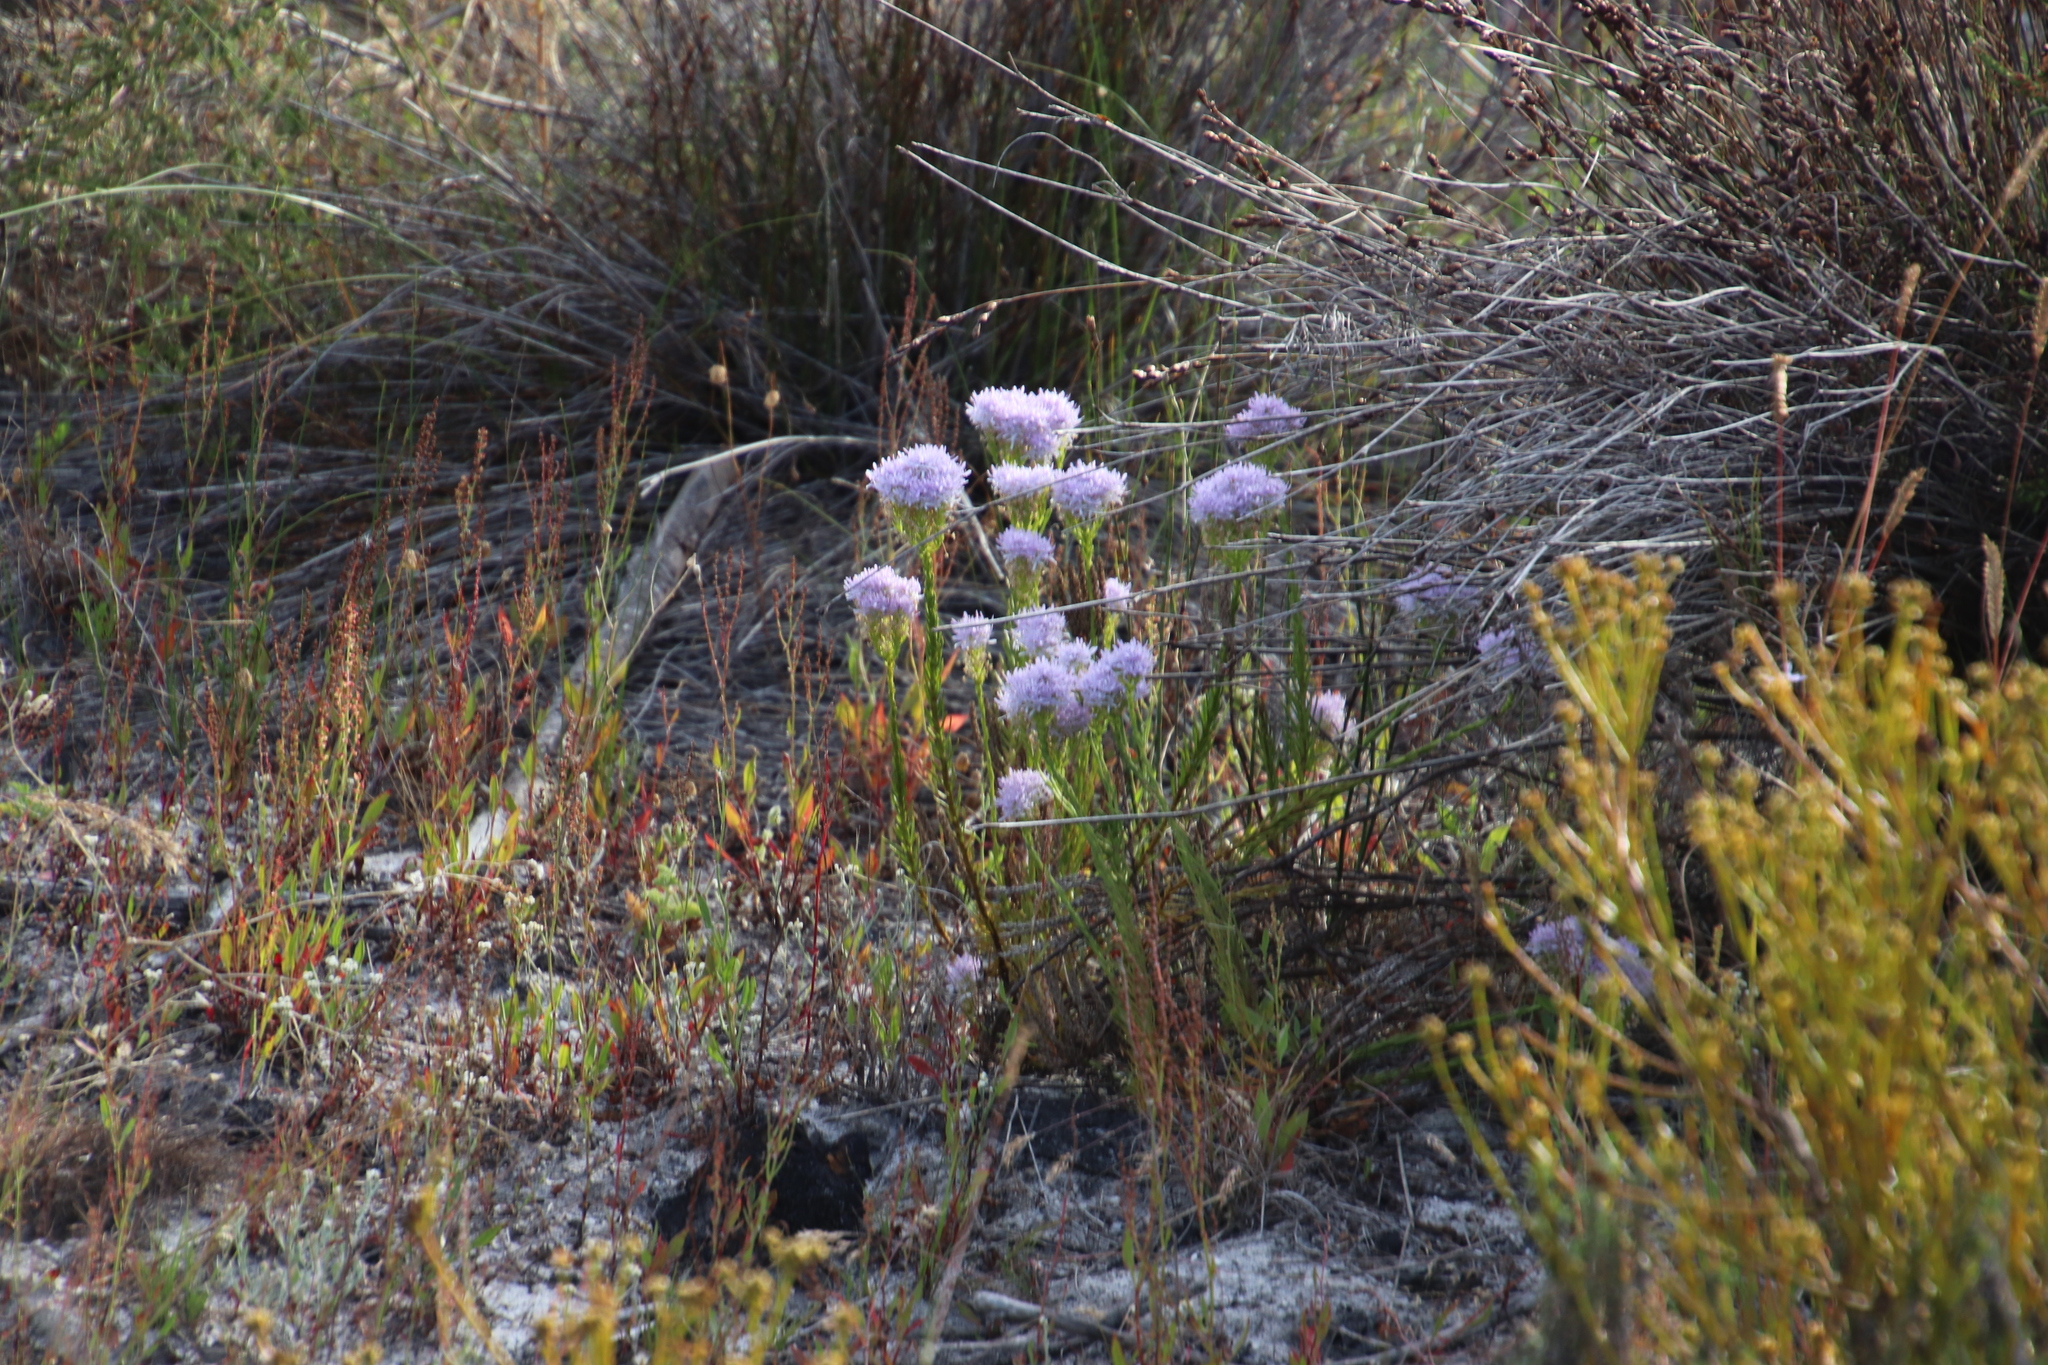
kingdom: Plantae
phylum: Tracheophyta
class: Magnoliopsida
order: Lamiales
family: Scrophulariaceae
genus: Pseudoselago
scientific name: Pseudoselago spuria
